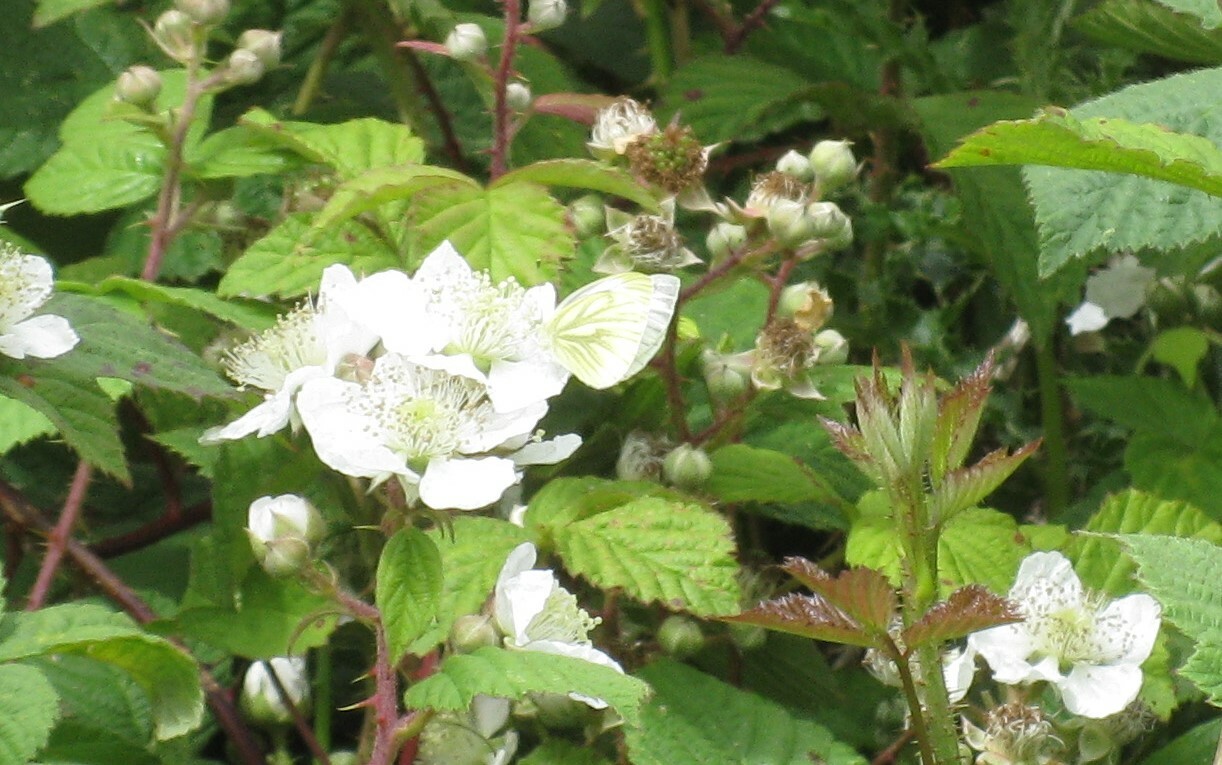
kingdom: Animalia
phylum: Arthropoda
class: Insecta
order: Lepidoptera
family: Pieridae
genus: Pieris
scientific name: Pieris napi
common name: Green-veined white
